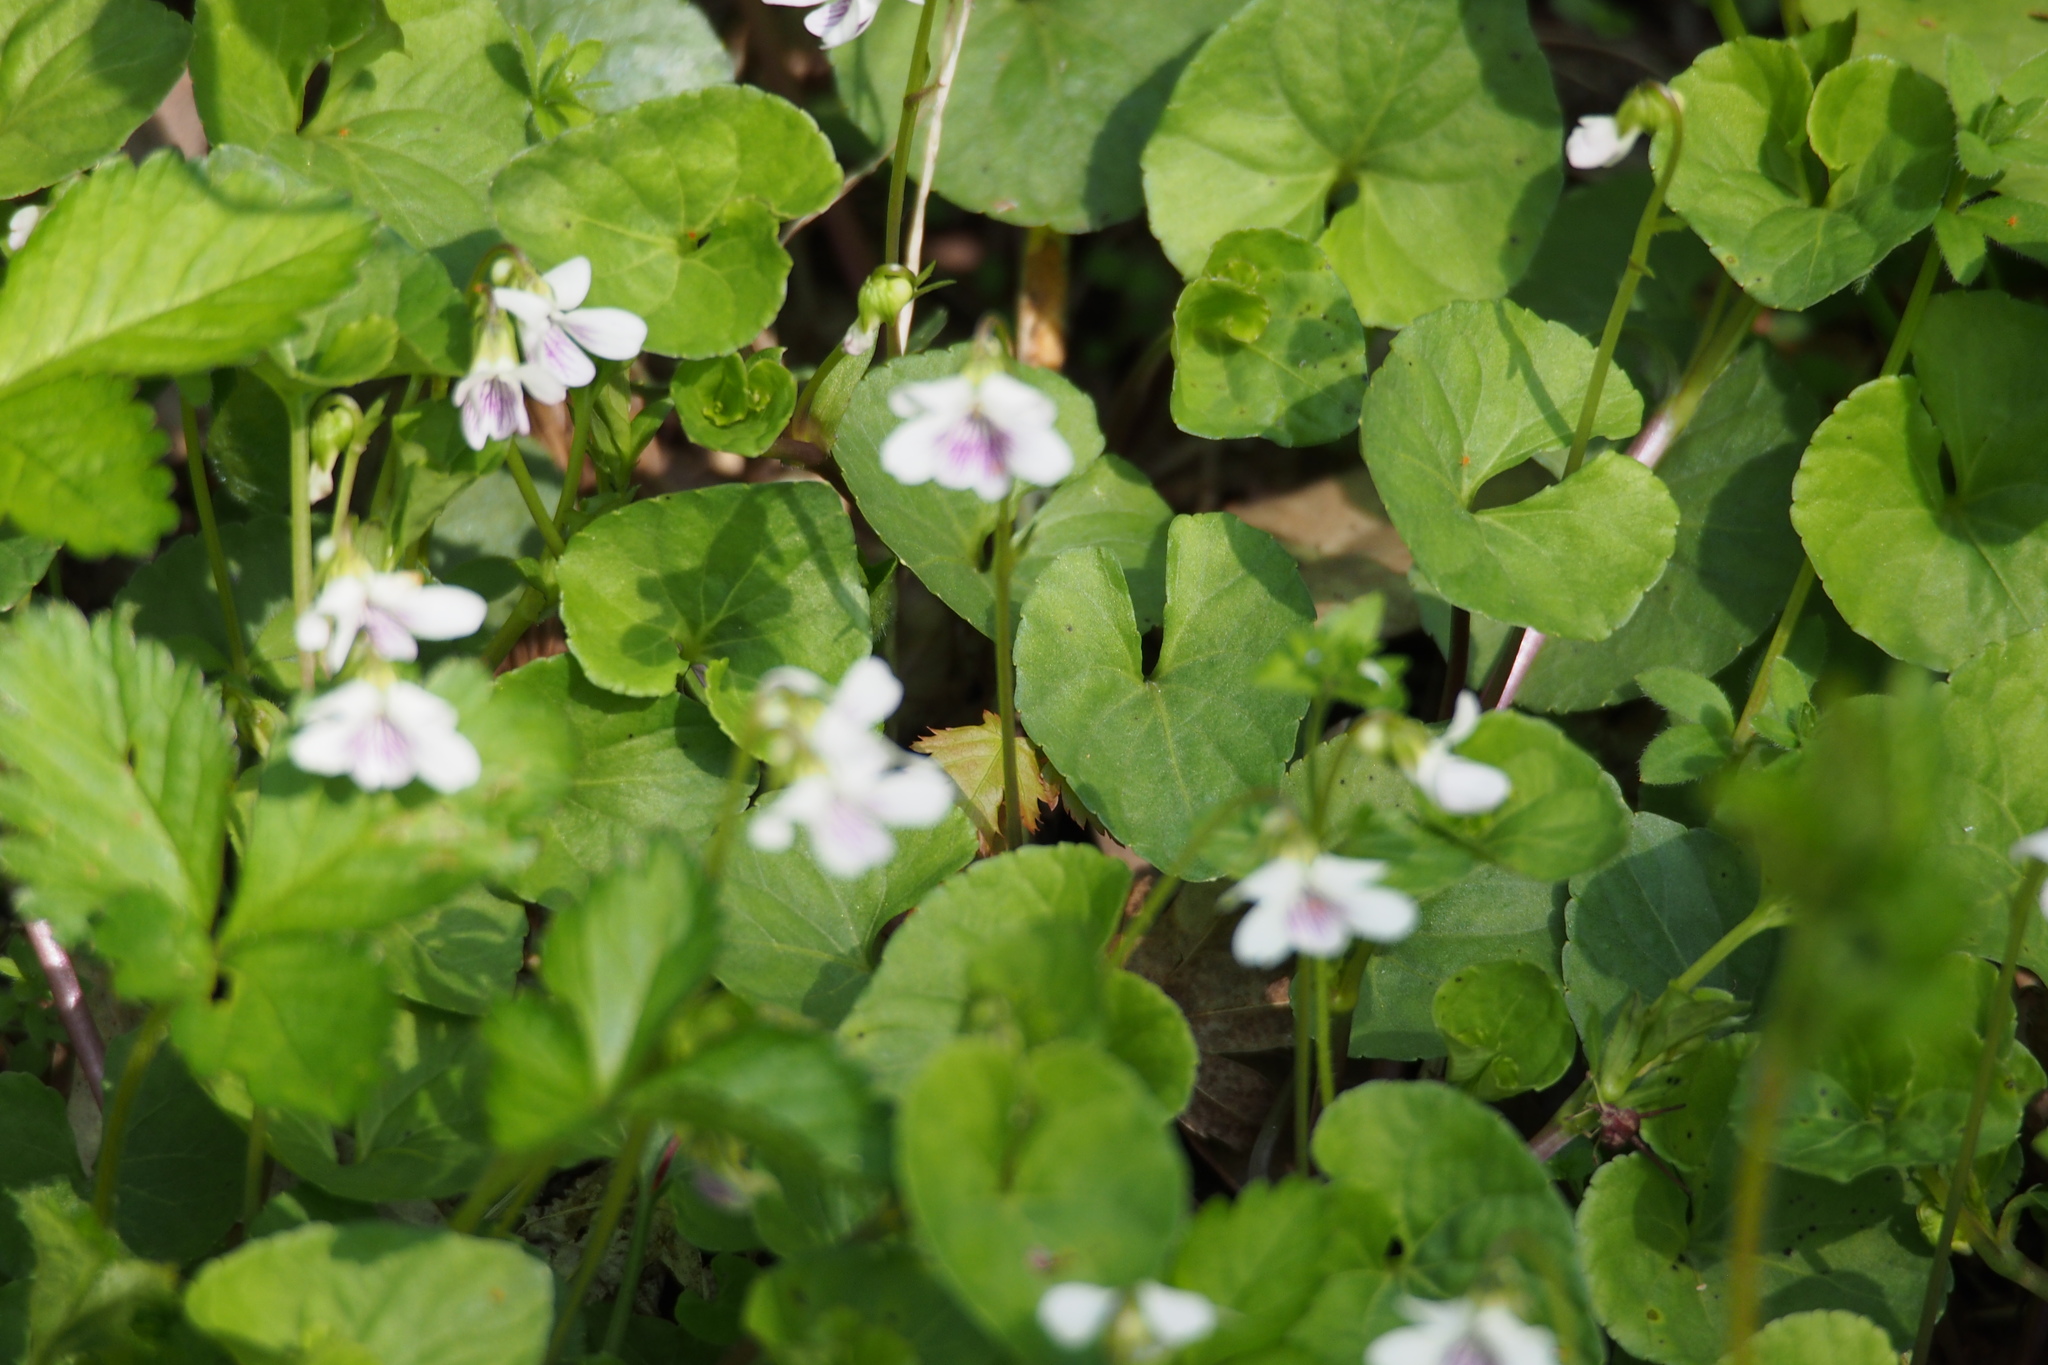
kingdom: Plantae
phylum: Tracheophyta
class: Magnoliopsida
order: Malpighiales
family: Violaceae
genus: Viola
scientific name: Viola
